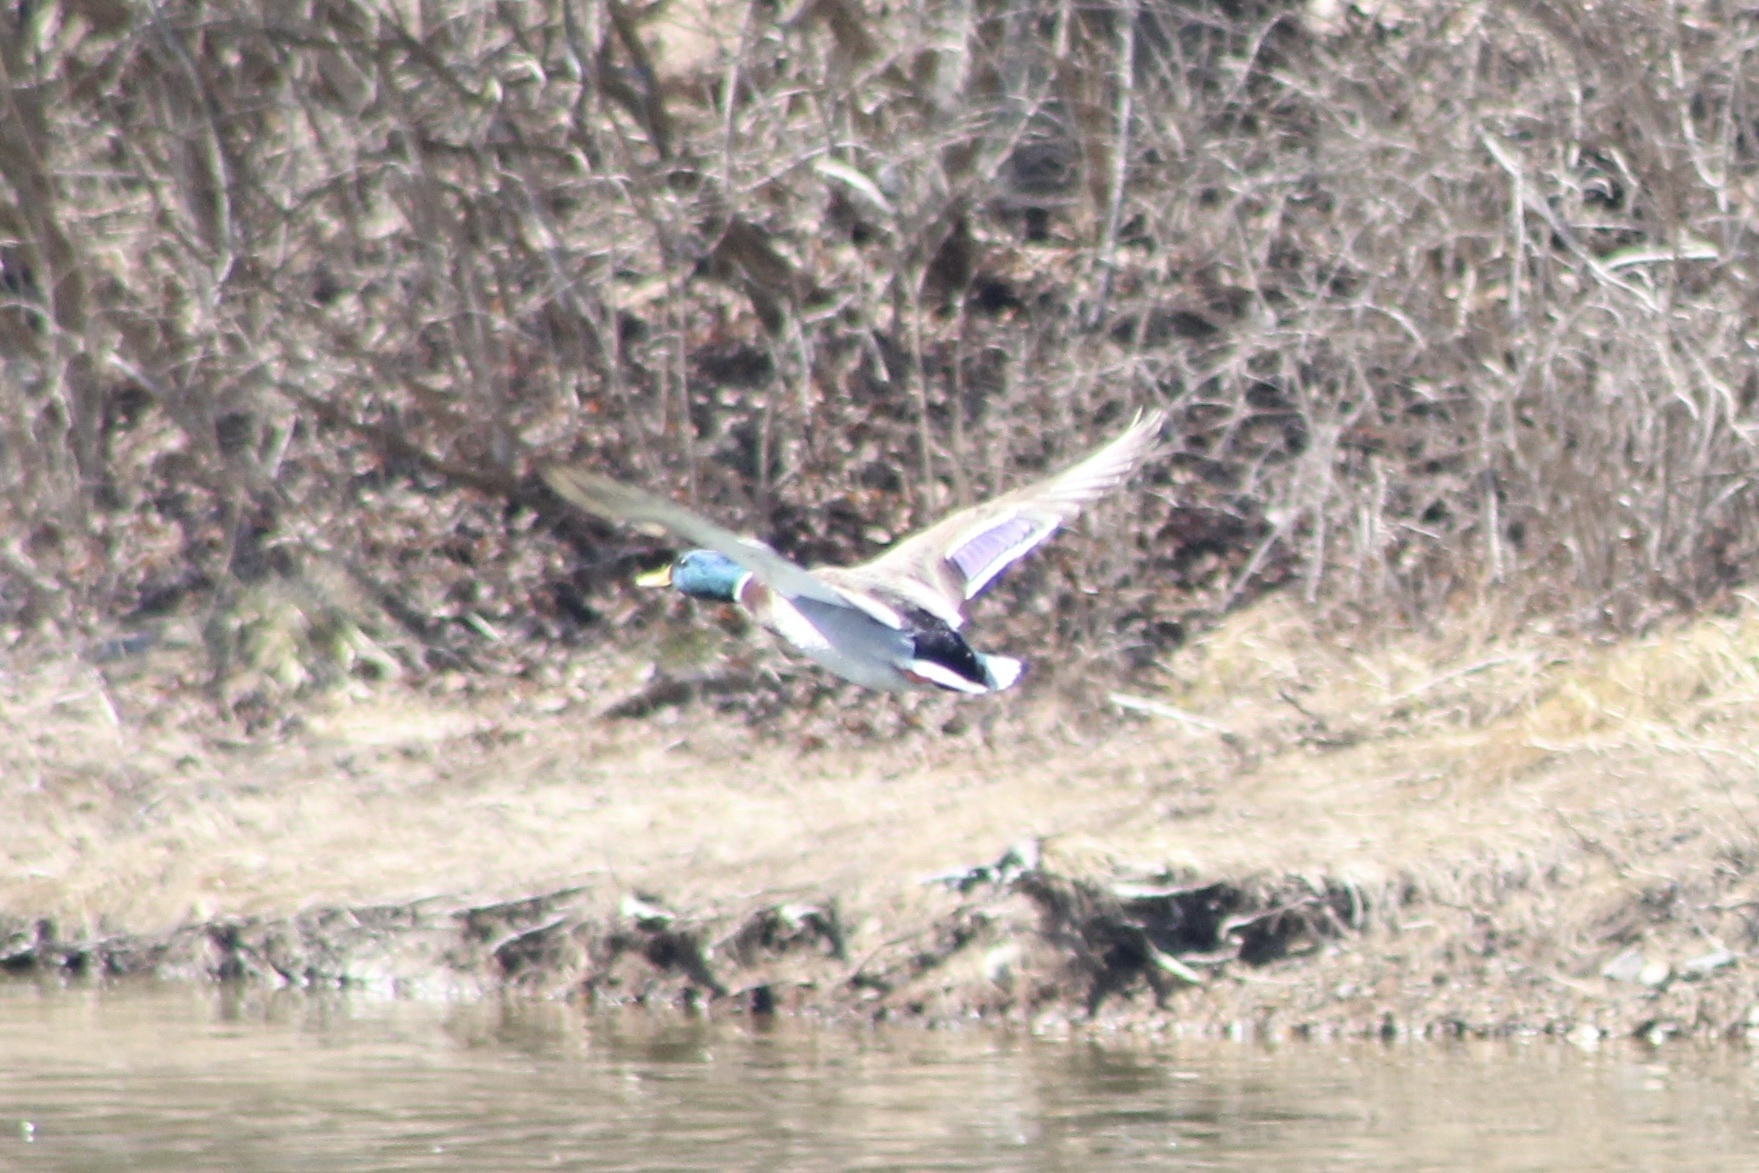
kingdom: Animalia
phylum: Chordata
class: Aves
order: Anseriformes
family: Anatidae
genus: Anas
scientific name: Anas platyrhynchos
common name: Mallard
